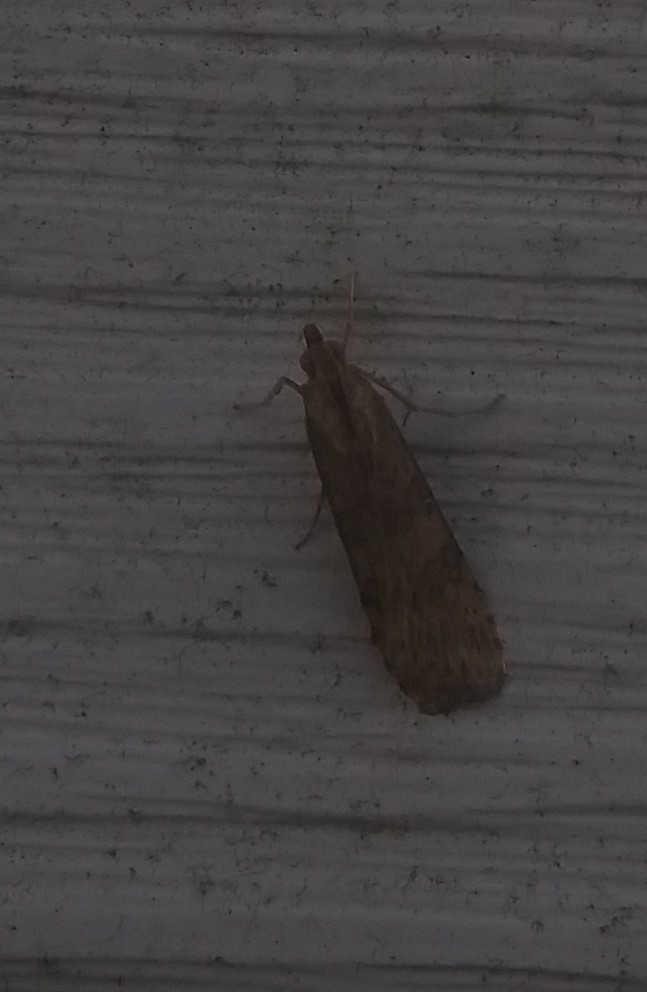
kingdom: Animalia
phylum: Arthropoda
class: Insecta
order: Lepidoptera
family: Crambidae
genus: Nomophila
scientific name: Nomophila nearctica
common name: American rush veneer
